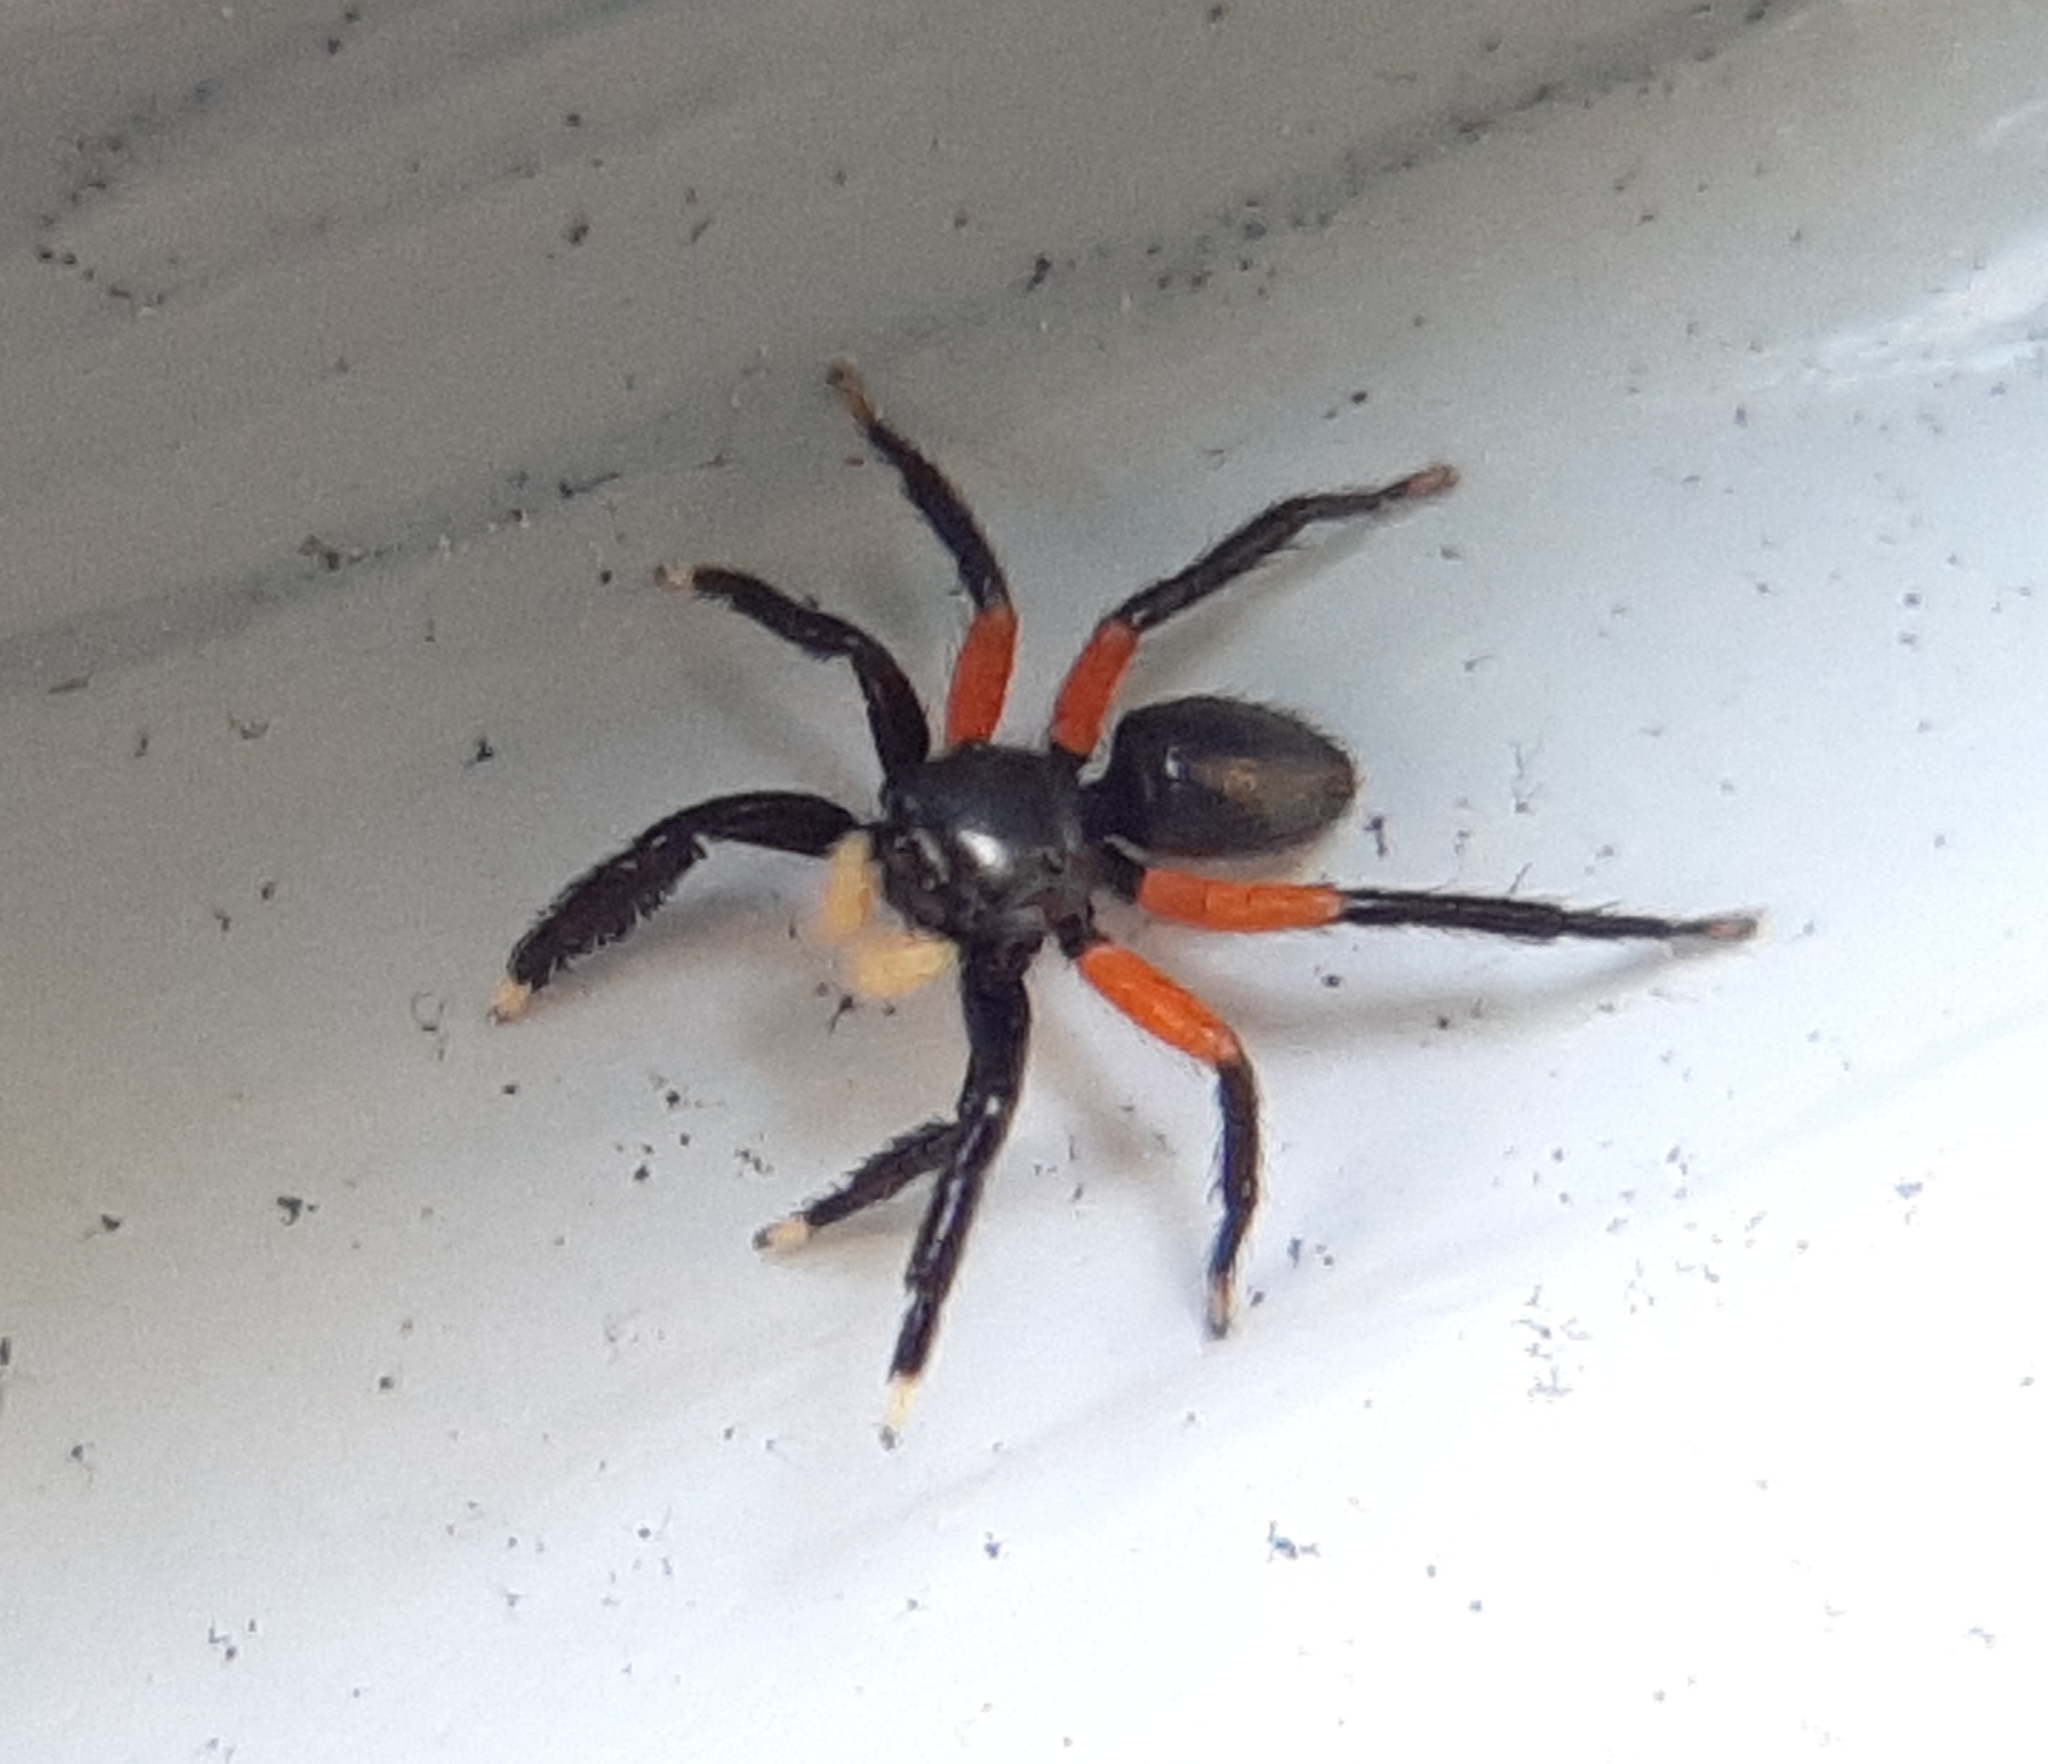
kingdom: Animalia
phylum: Arthropoda
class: Arachnida
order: Araneae
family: Salticidae
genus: Euophrys
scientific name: Euophrys monadnock
